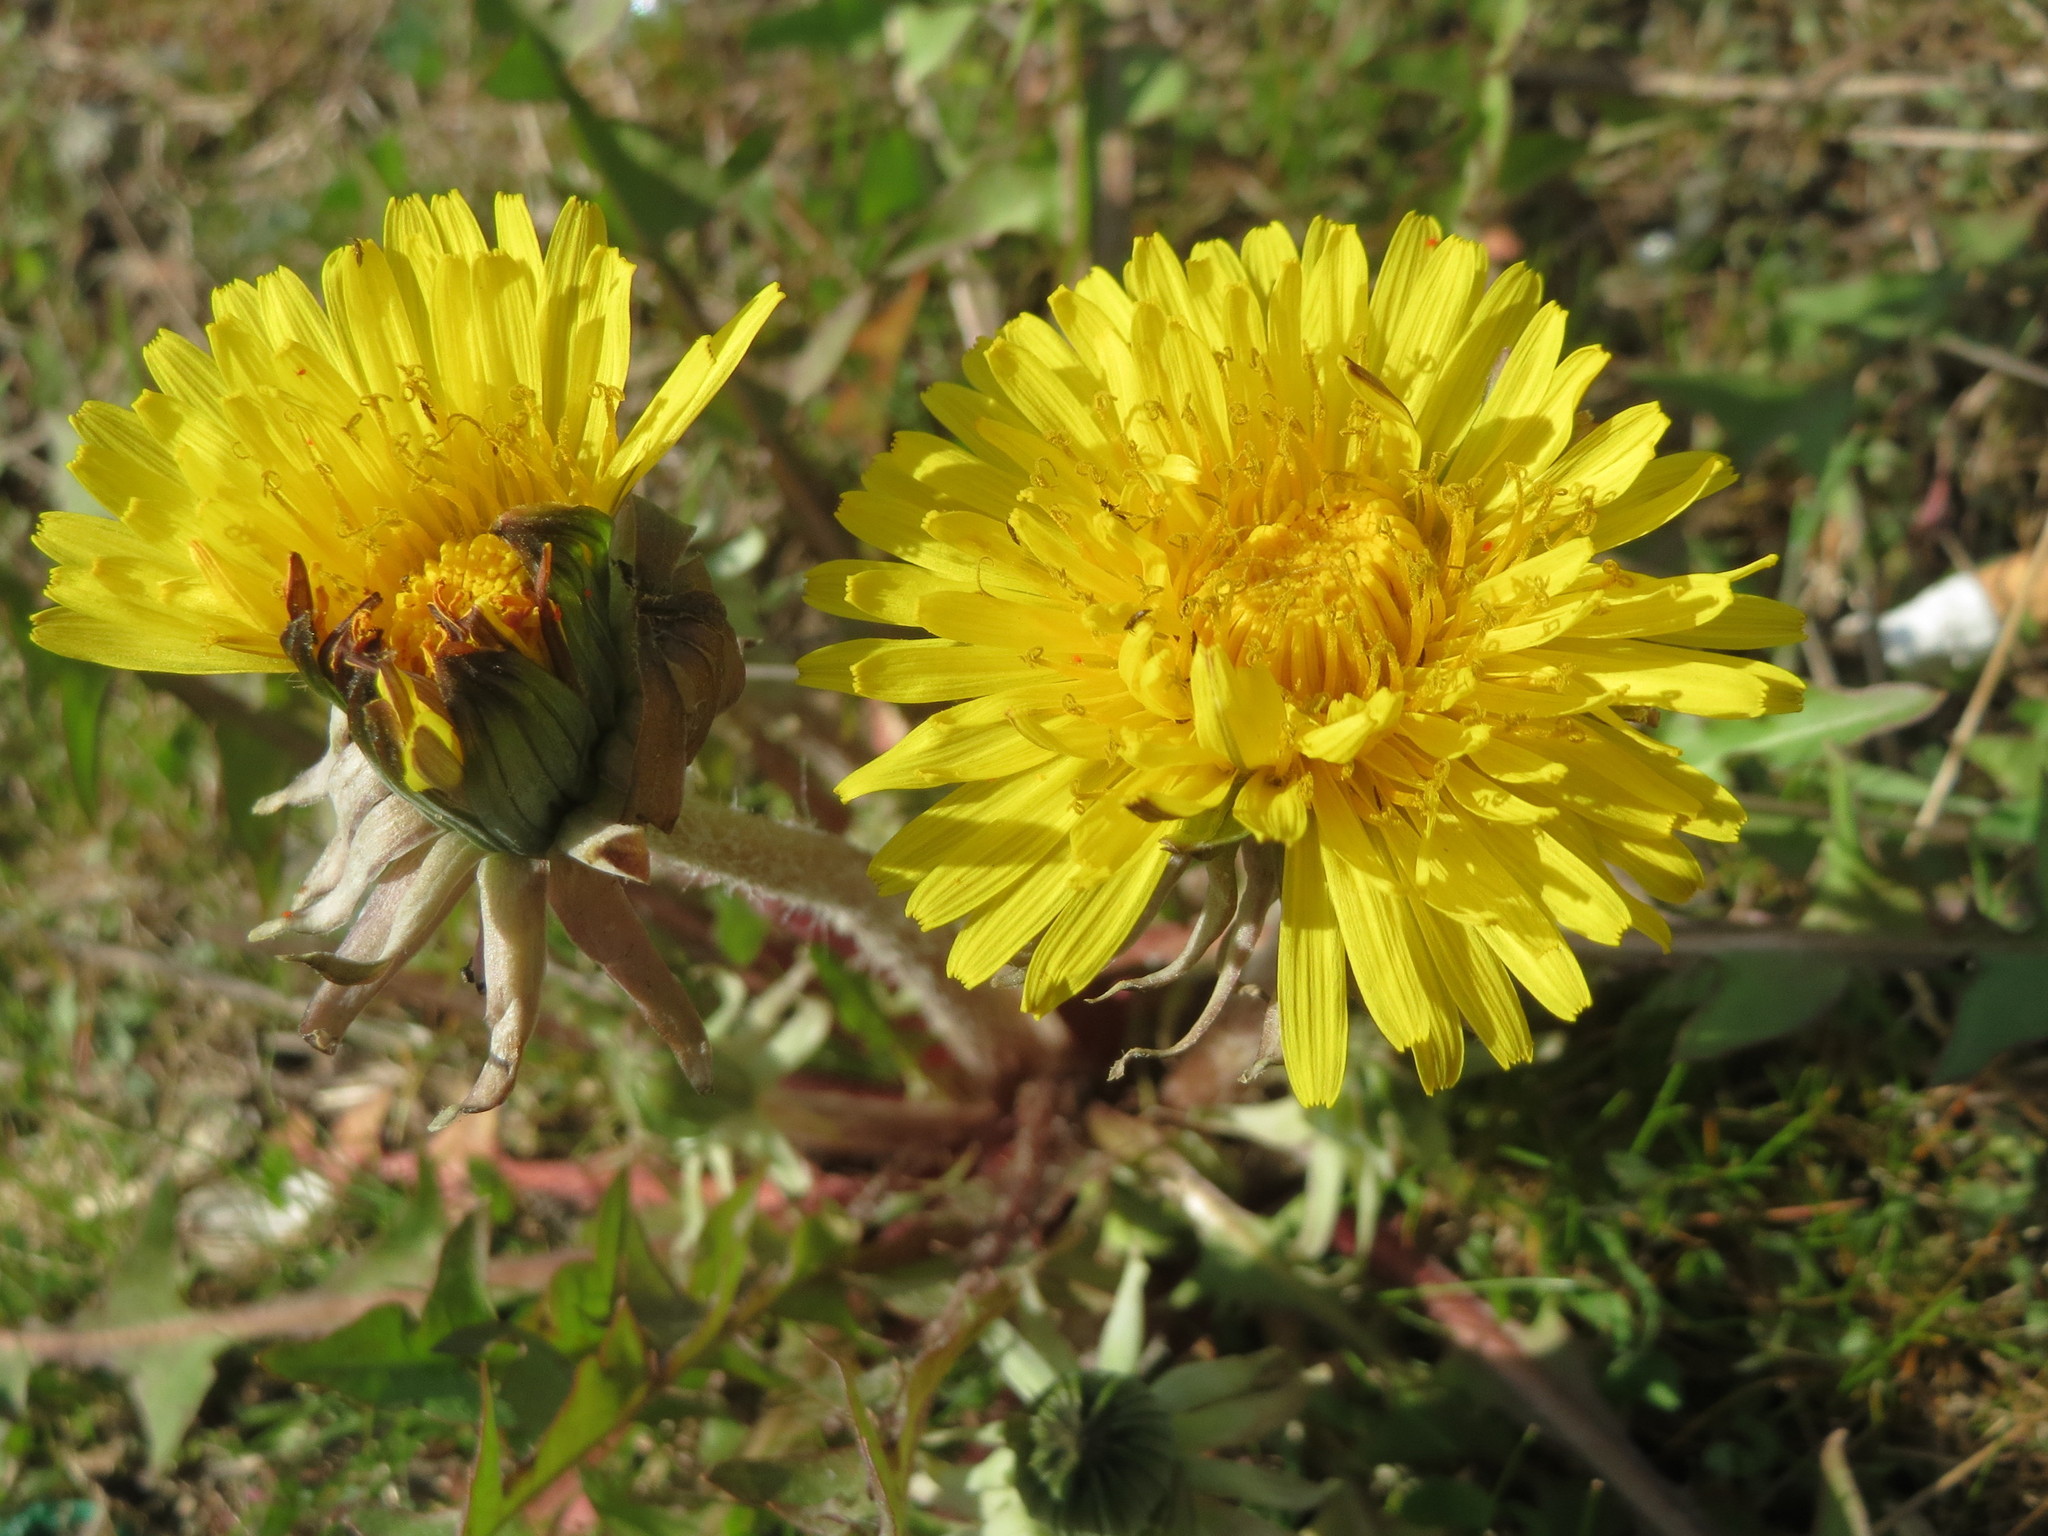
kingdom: Plantae
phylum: Tracheophyta
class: Magnoliopsida
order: Asterales
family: Asteraceae
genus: Taraxacum
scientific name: Taraxacum officinale
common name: Common dandelion
